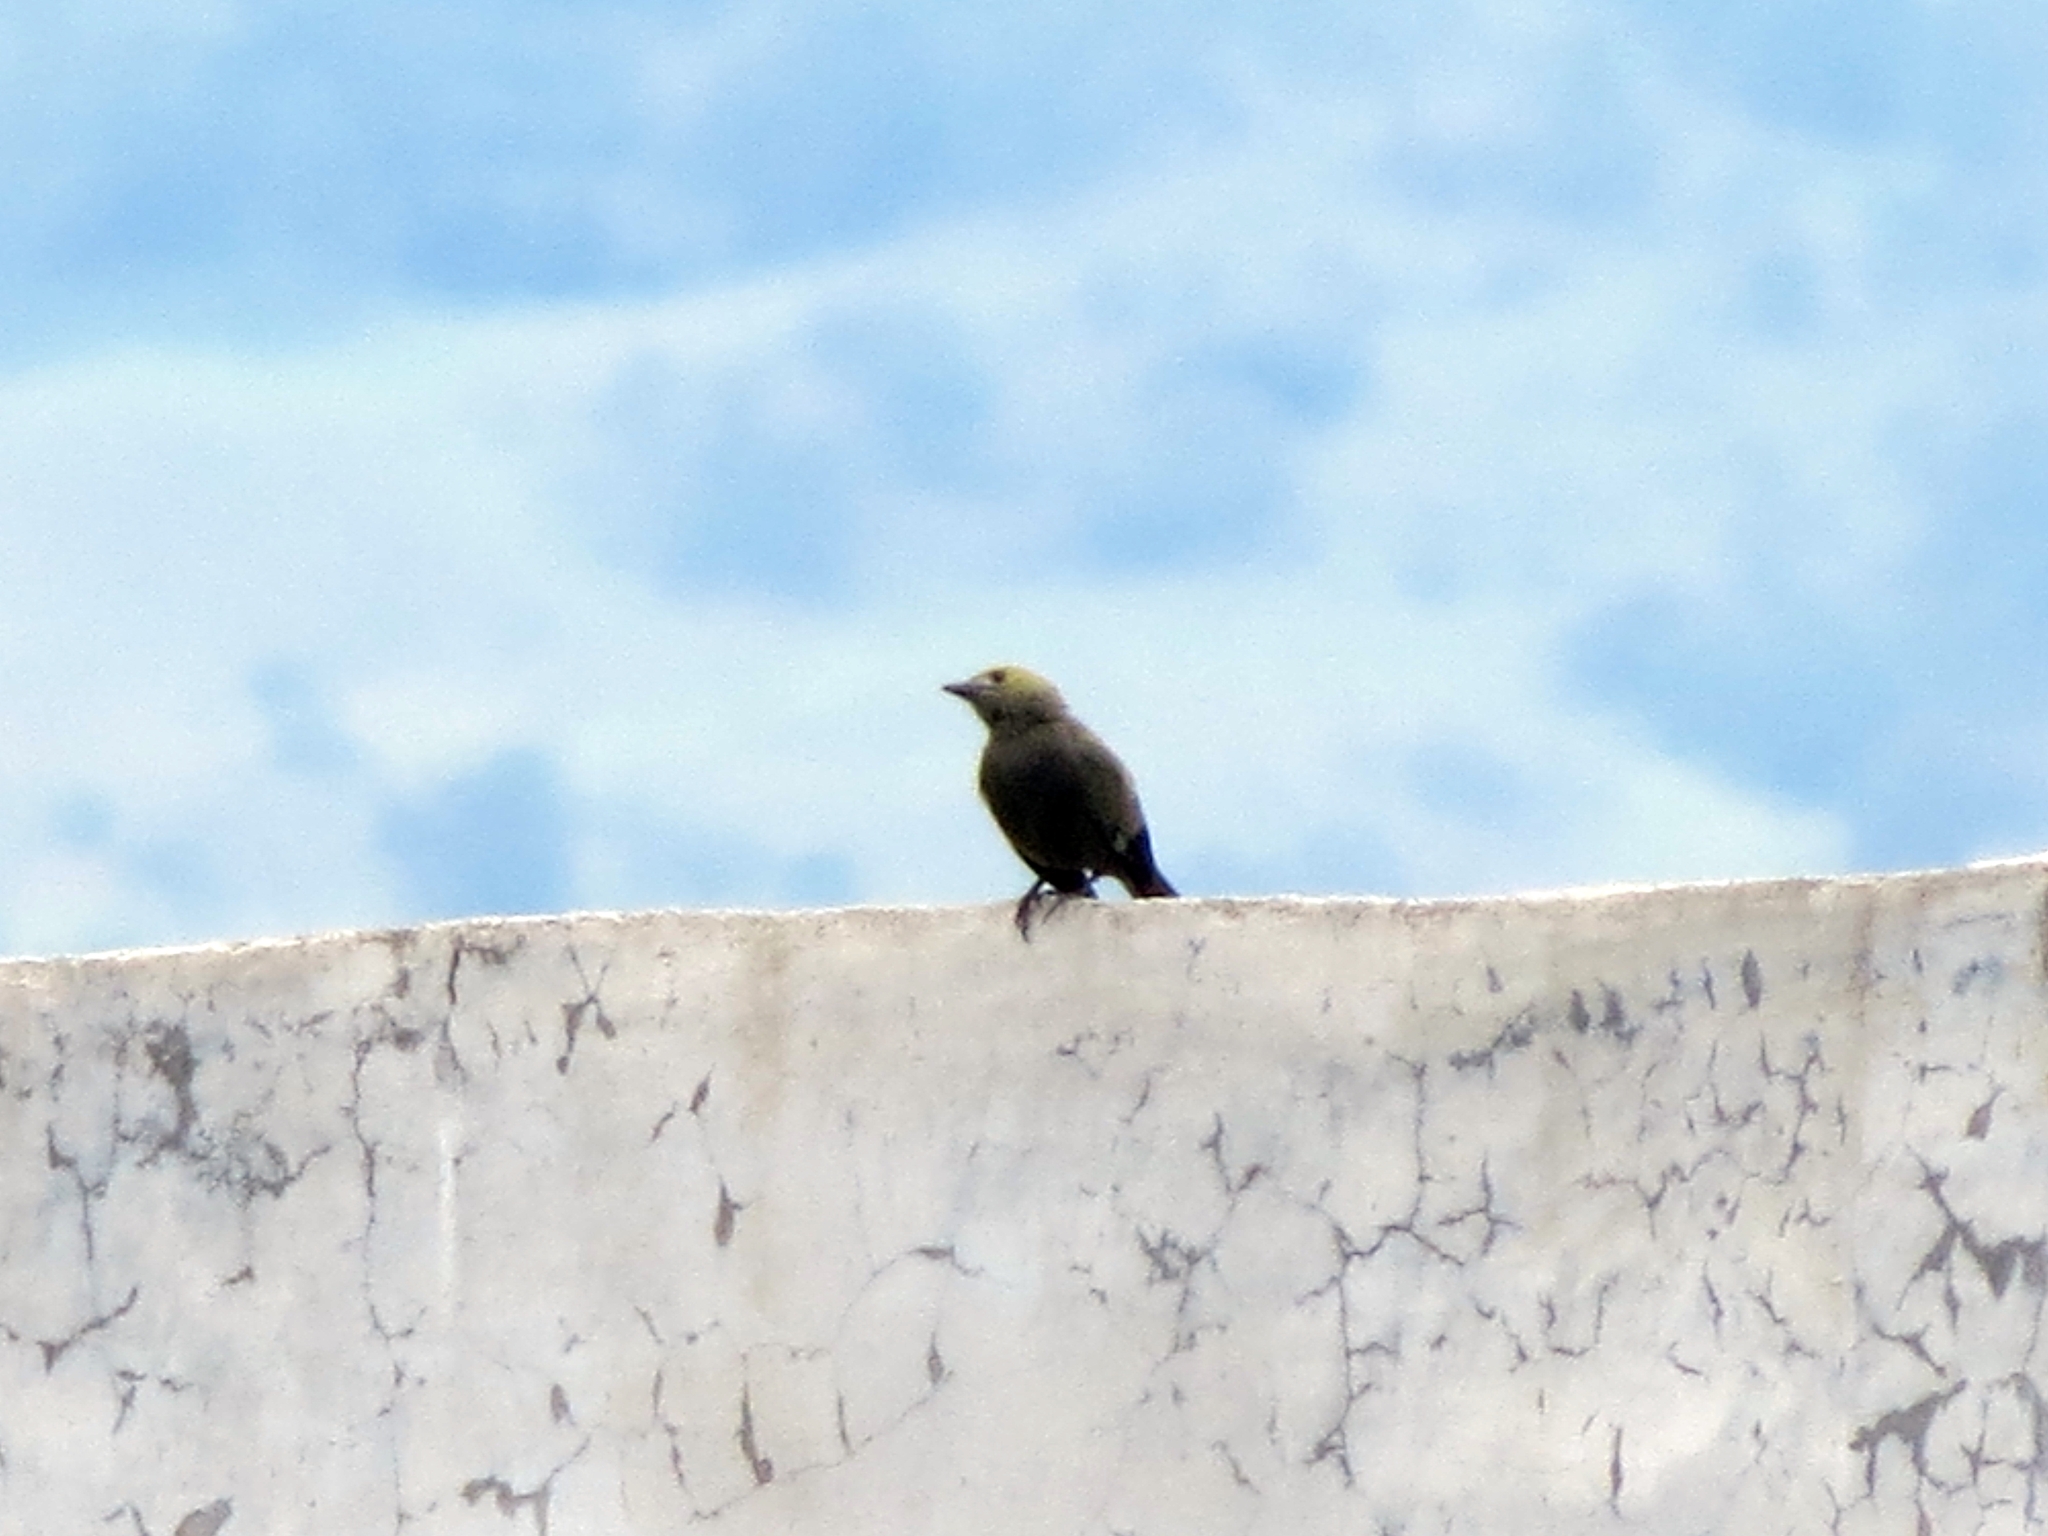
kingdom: Animalia
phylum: Chordata
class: Aves
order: Passeriformes
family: Thraupidae
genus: Thraupis
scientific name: Thraupis palmarum
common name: Palm tanager
